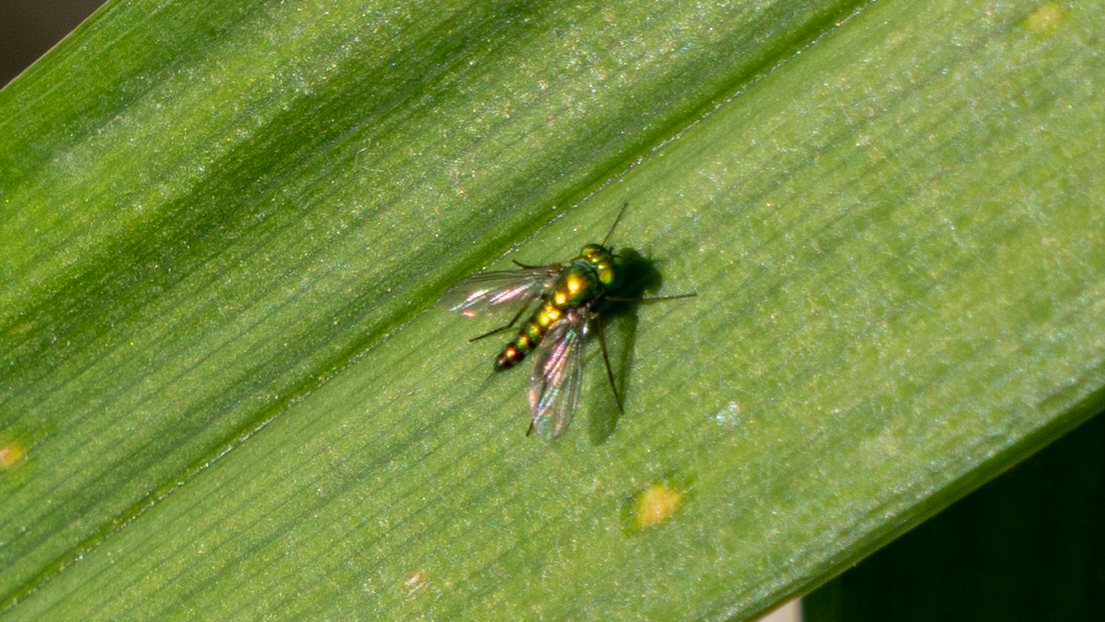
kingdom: Animalia
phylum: Arthropoda
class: Insecta
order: Diptera
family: Dolichopodidae
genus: Condylostylus
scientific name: Condylostylus caudatus
